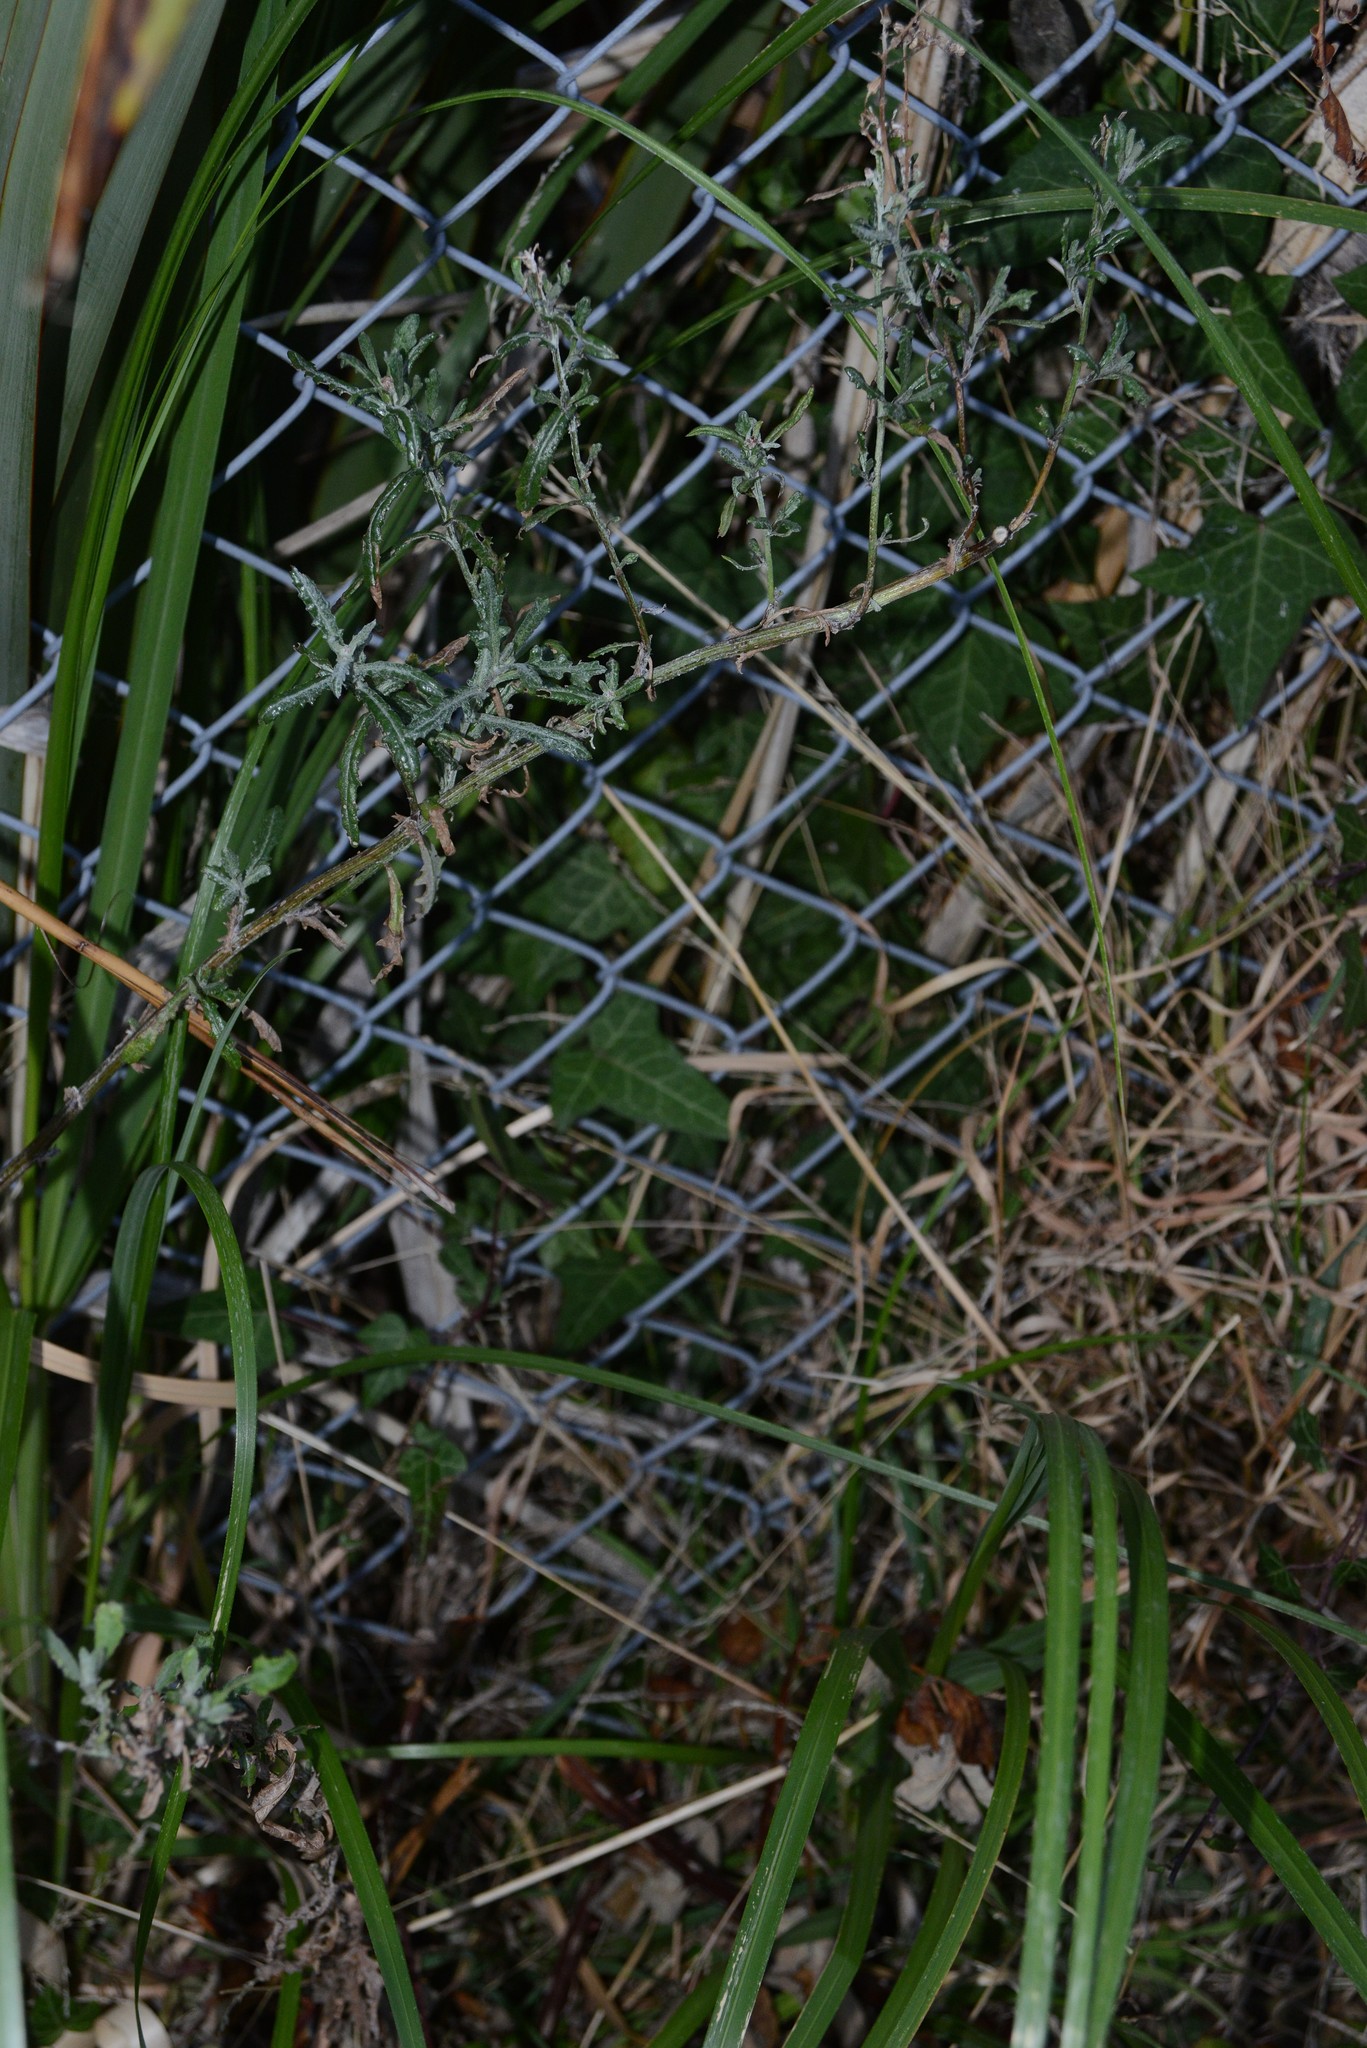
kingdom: Plantae
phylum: Tracheophyta
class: Magnoliopsida
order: Asterales
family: Asteraceae
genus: Senecio
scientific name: Senecio glomeratus
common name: Cutleaf burnweed
